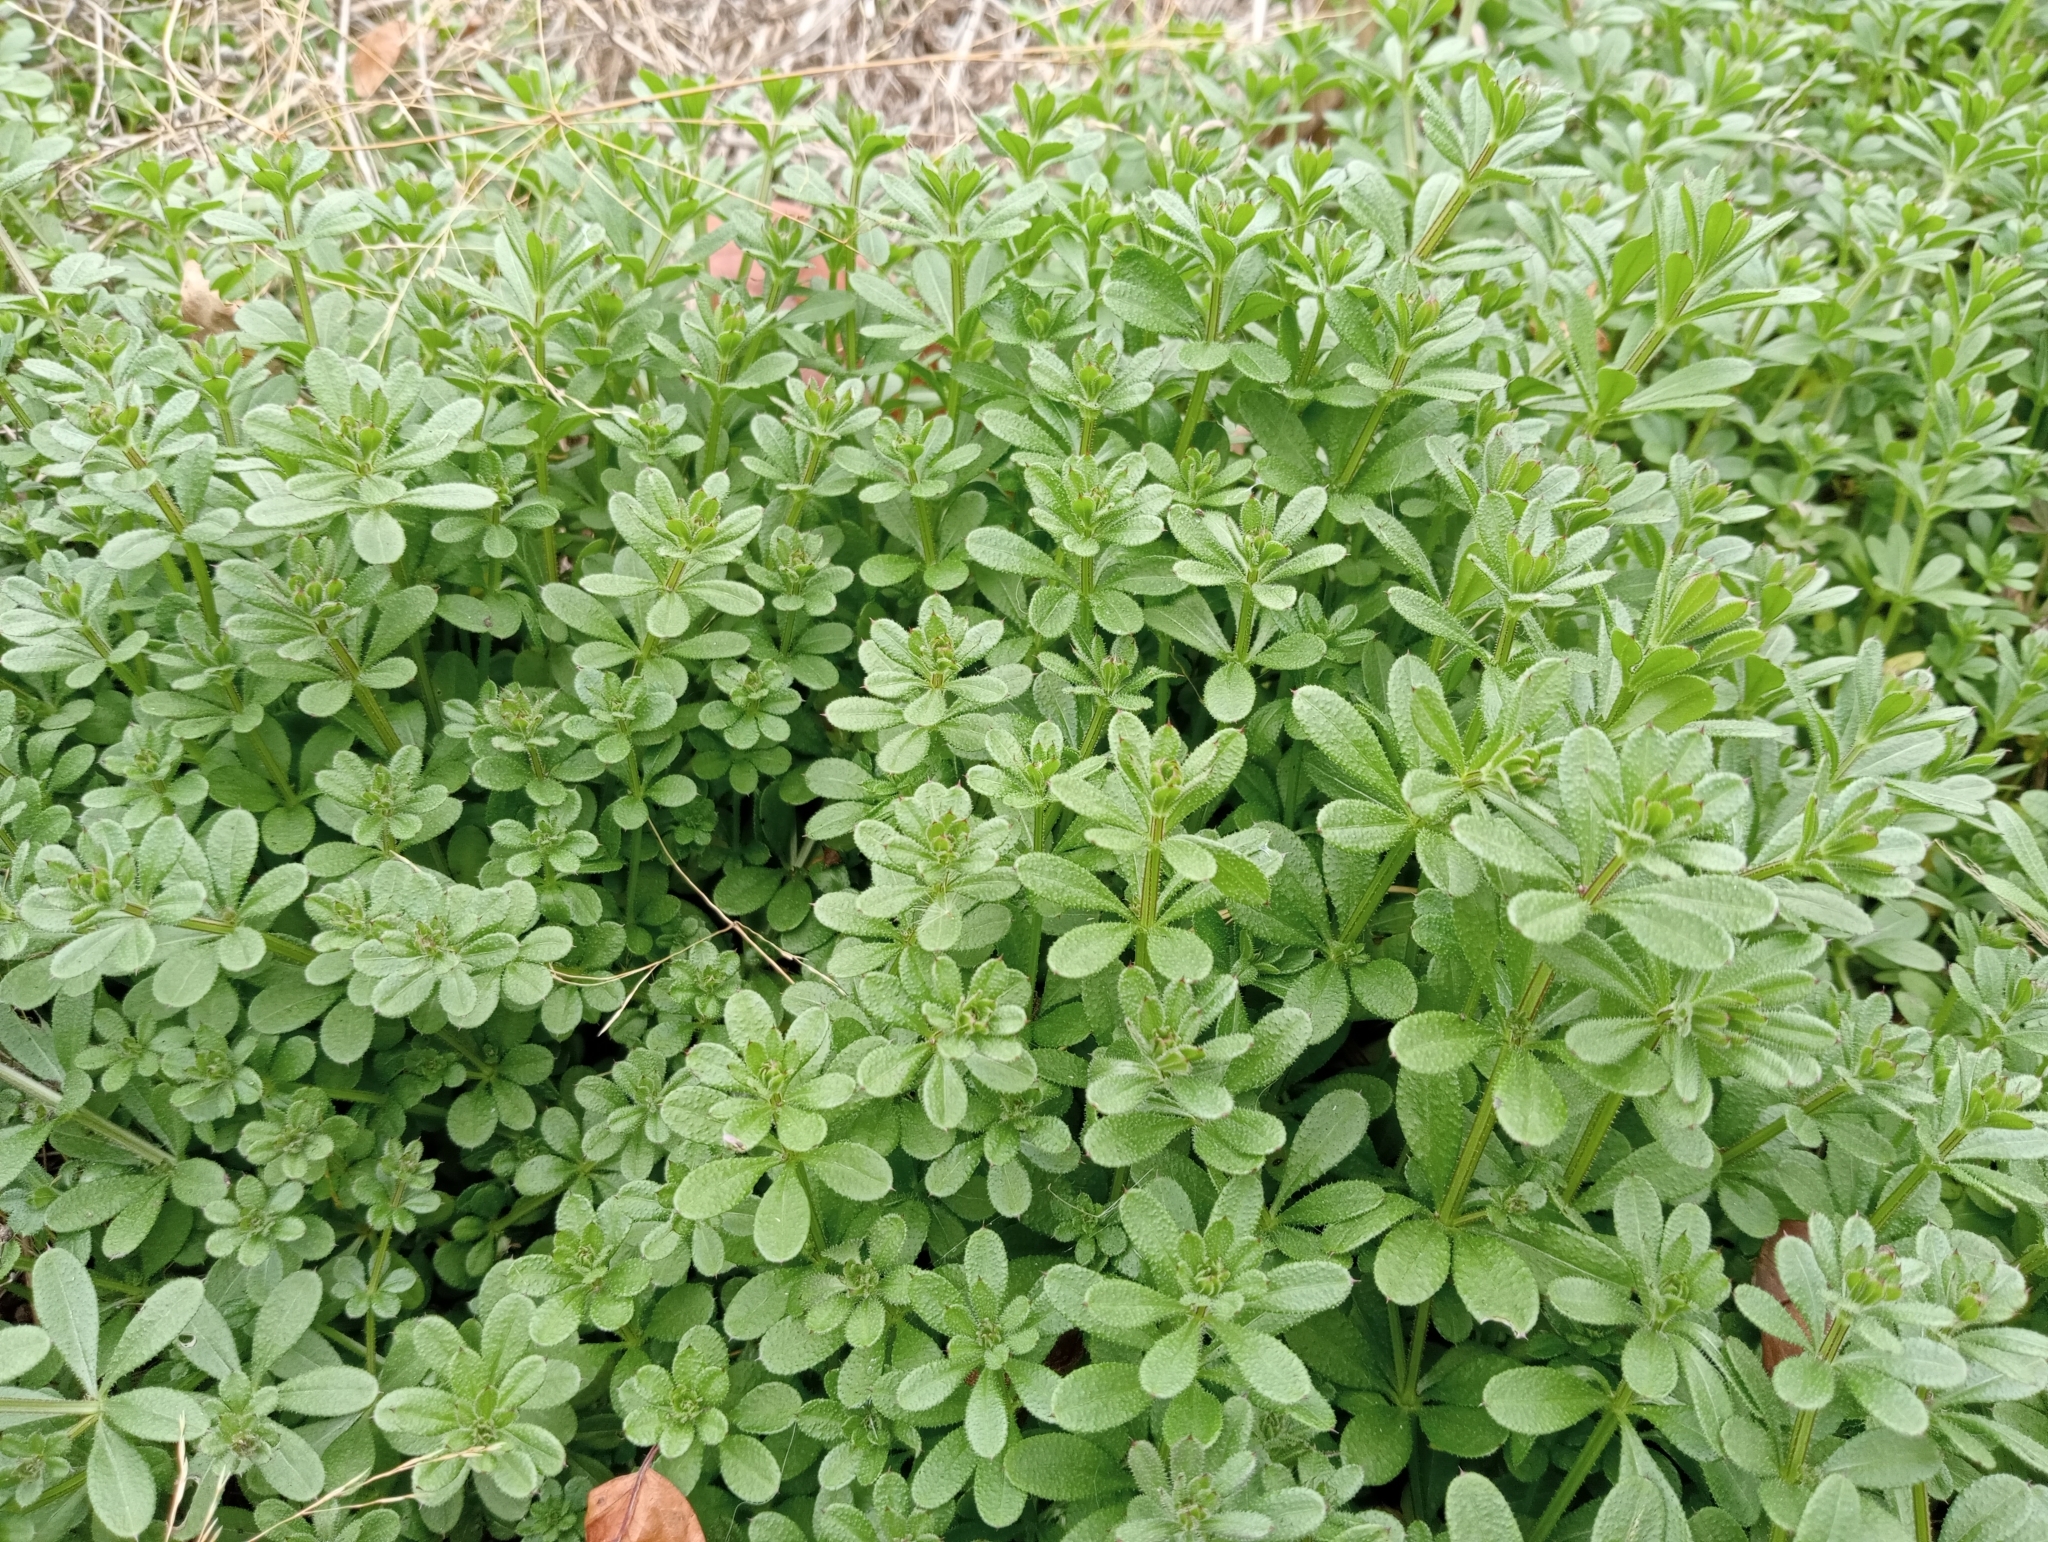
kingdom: Plantae
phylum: Tracheophyta
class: Magnoliopsida
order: Gentianales
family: Rubiaceae
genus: Galium
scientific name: Galium aparine
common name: Cleavers
